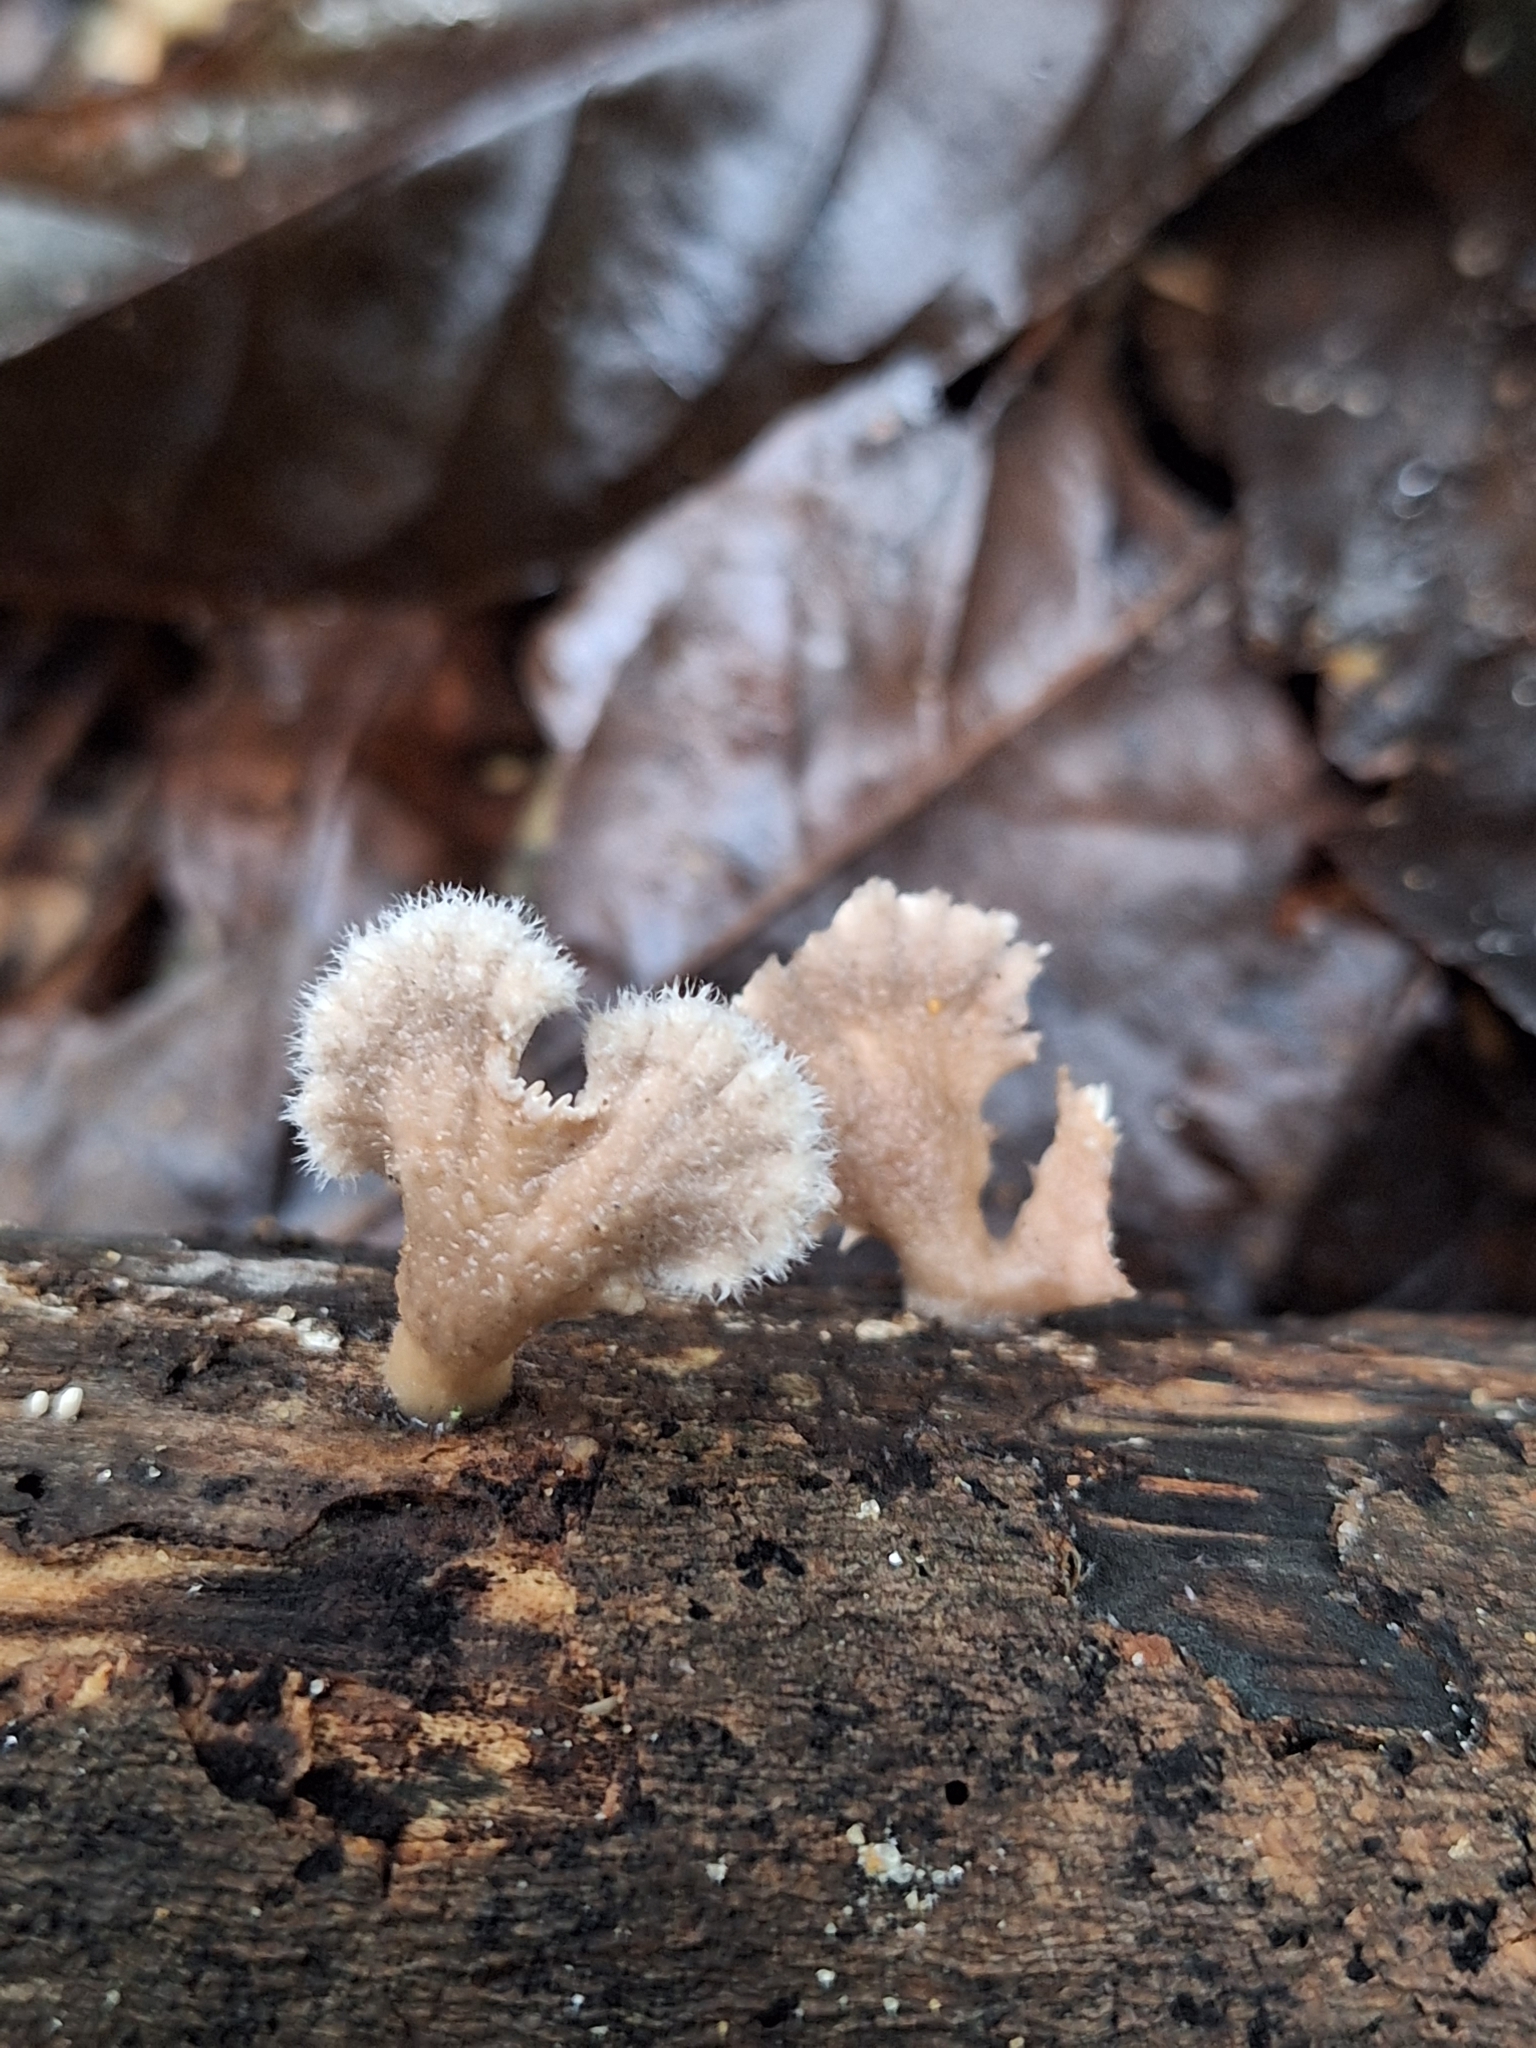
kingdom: Fungi
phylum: Basidiomycota
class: Agaricomycetes
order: Agaricales
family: Schizophyllaceae
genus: Schizophyllum
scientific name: Schizophyllum commune
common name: Common porecrust
